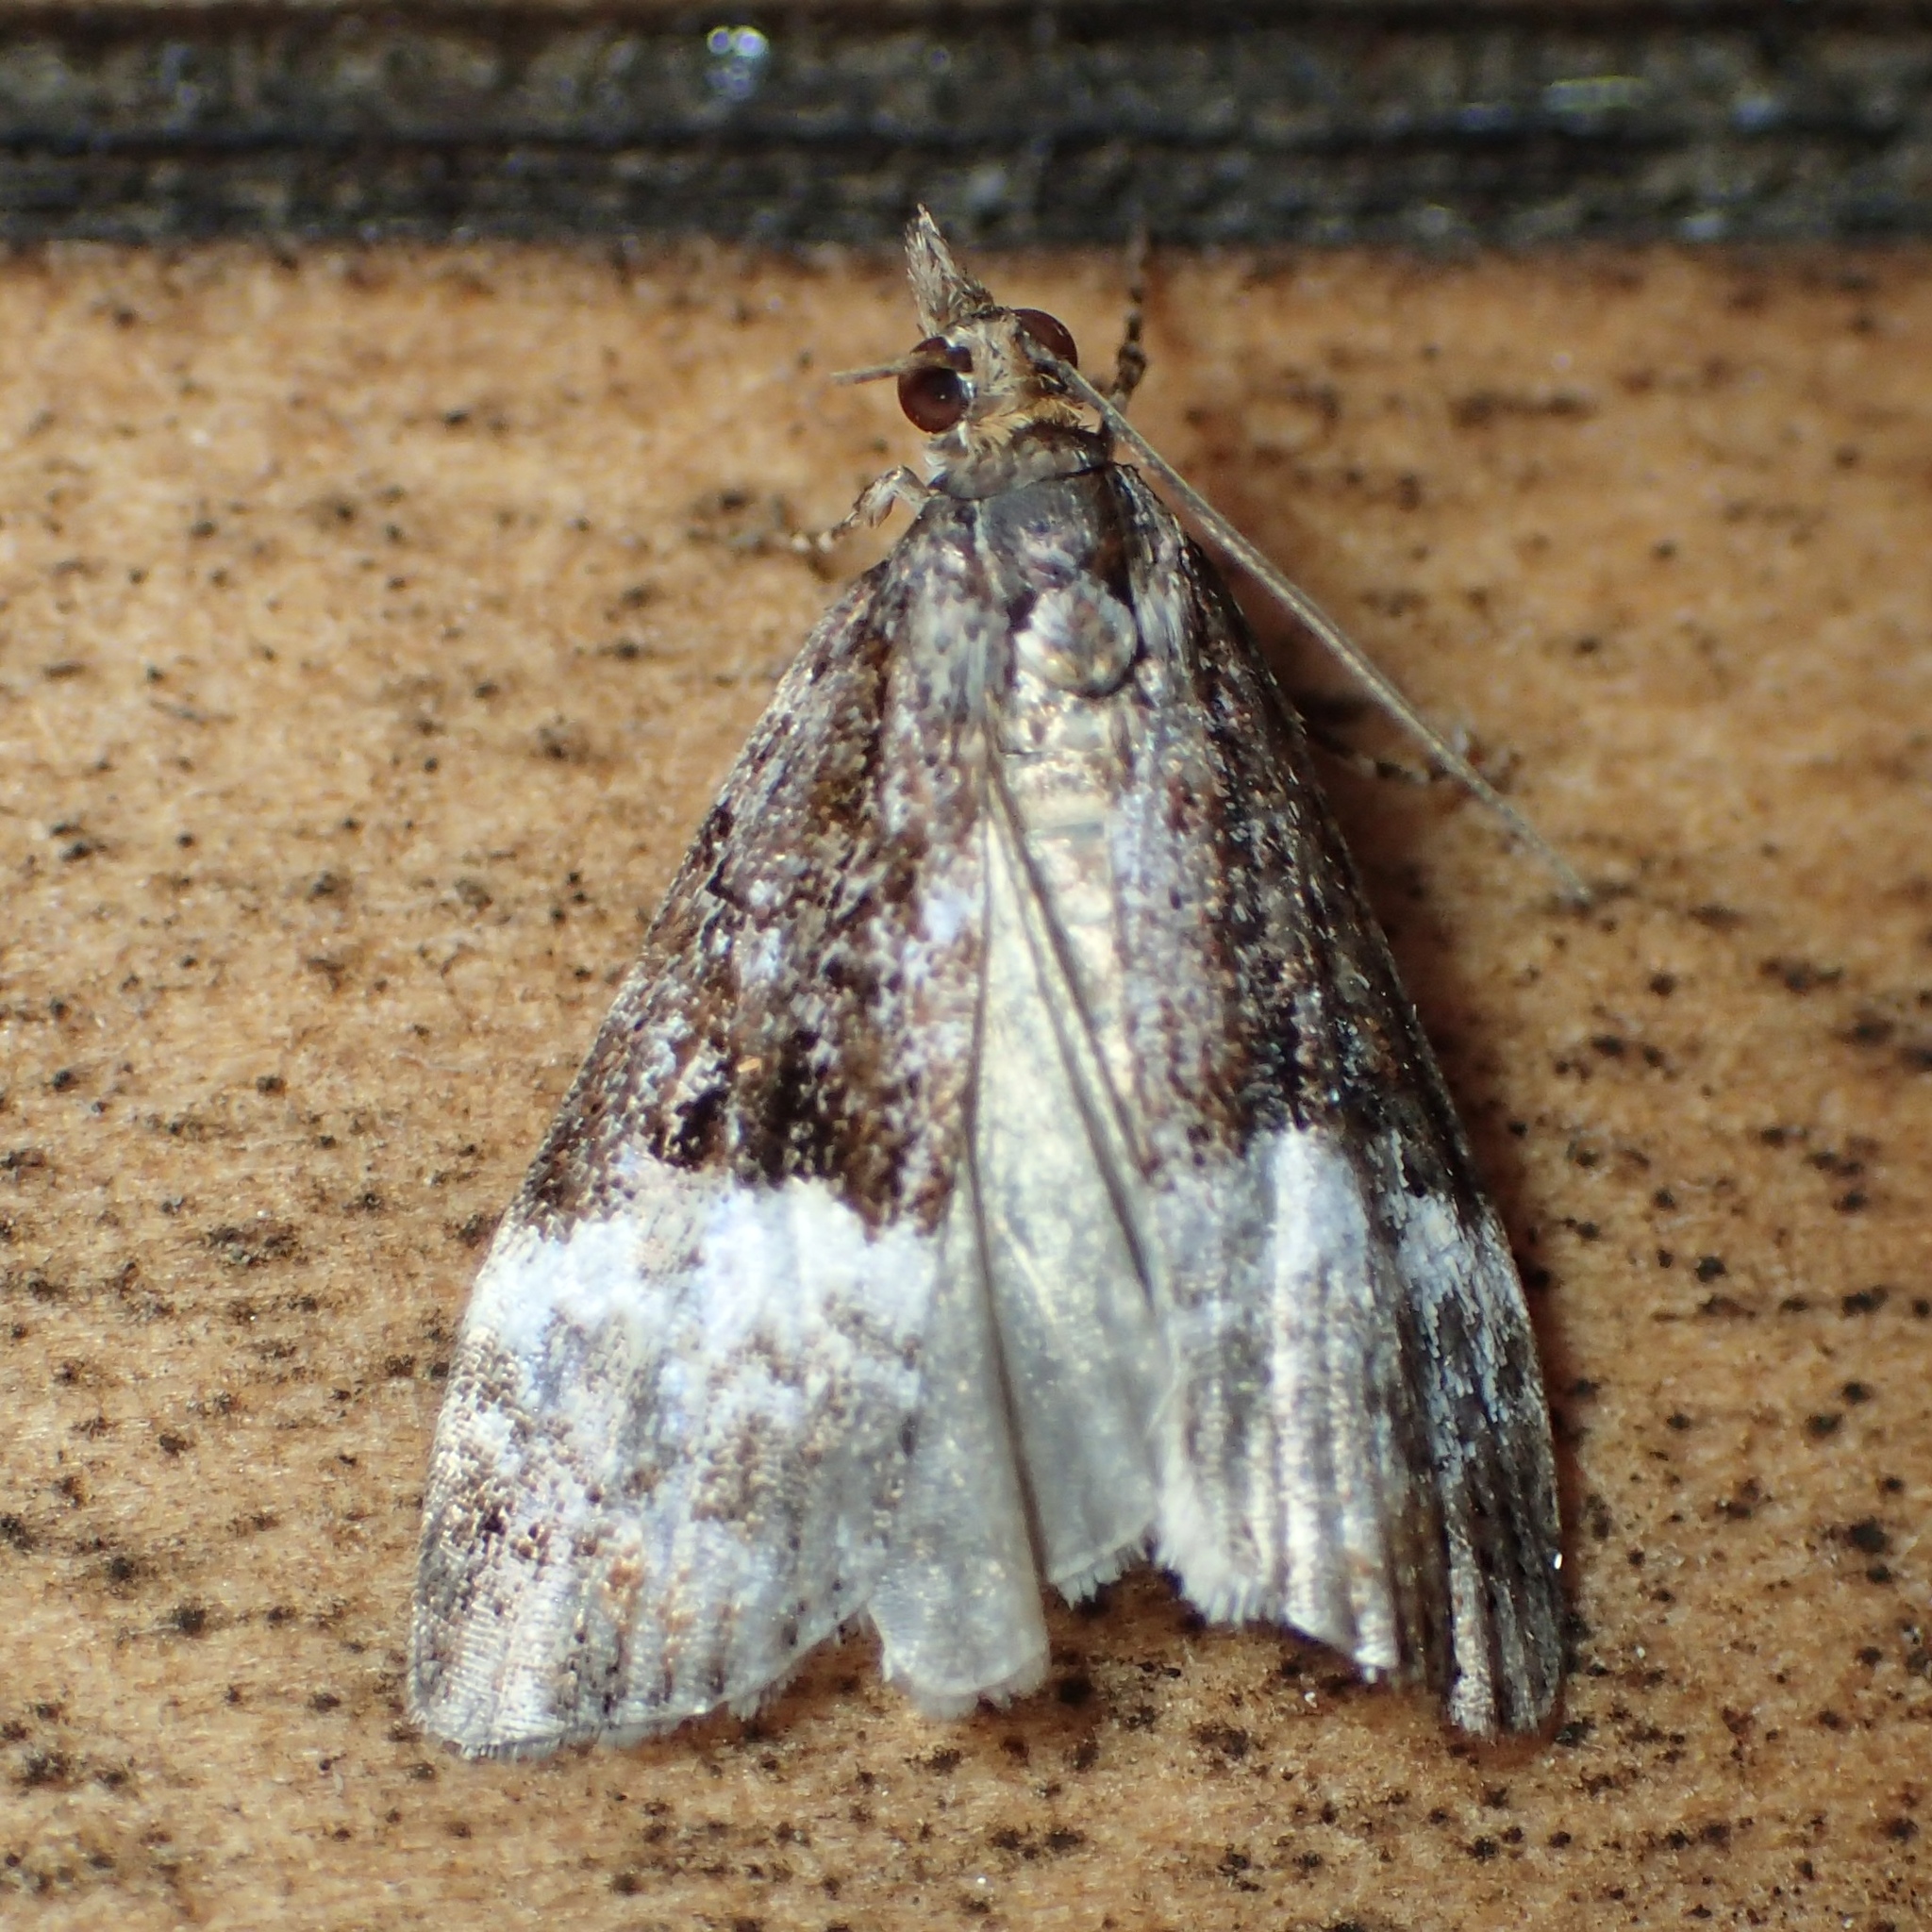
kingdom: Animalia
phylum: Arthropoda
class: Insecta
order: Lepidoptera
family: Crambidae
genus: Scoparia
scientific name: Scoparia minusculalis
